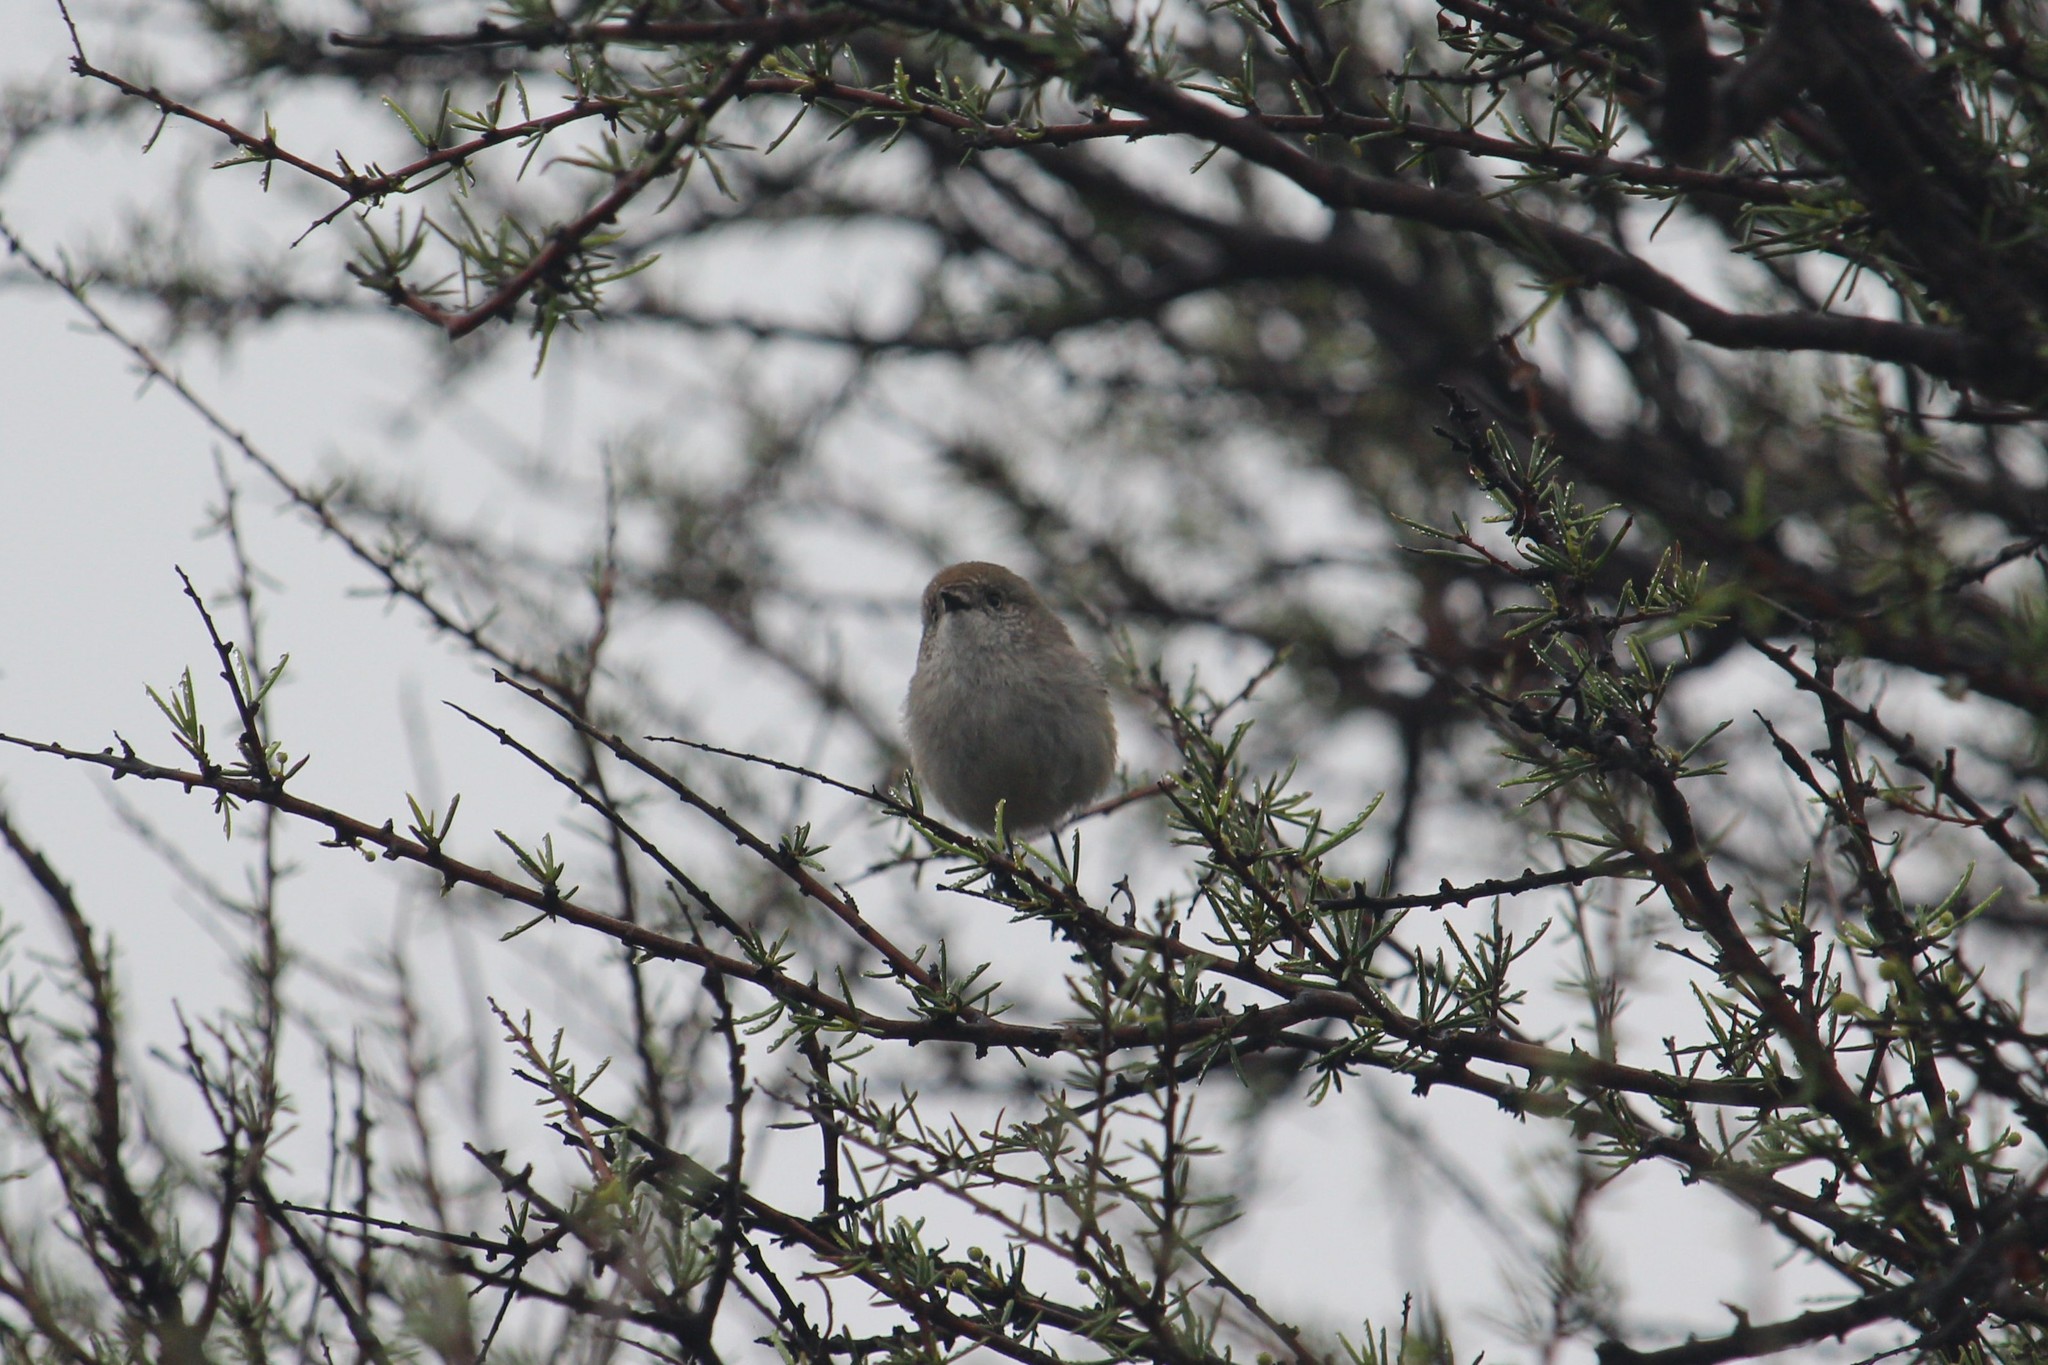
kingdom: Animalia
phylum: Chordata
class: Aves
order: Passeriformes
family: Acanthizidae
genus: Acanthiza
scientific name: Acanthiza uropygialis
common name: Chestnut-rumped thornbill
